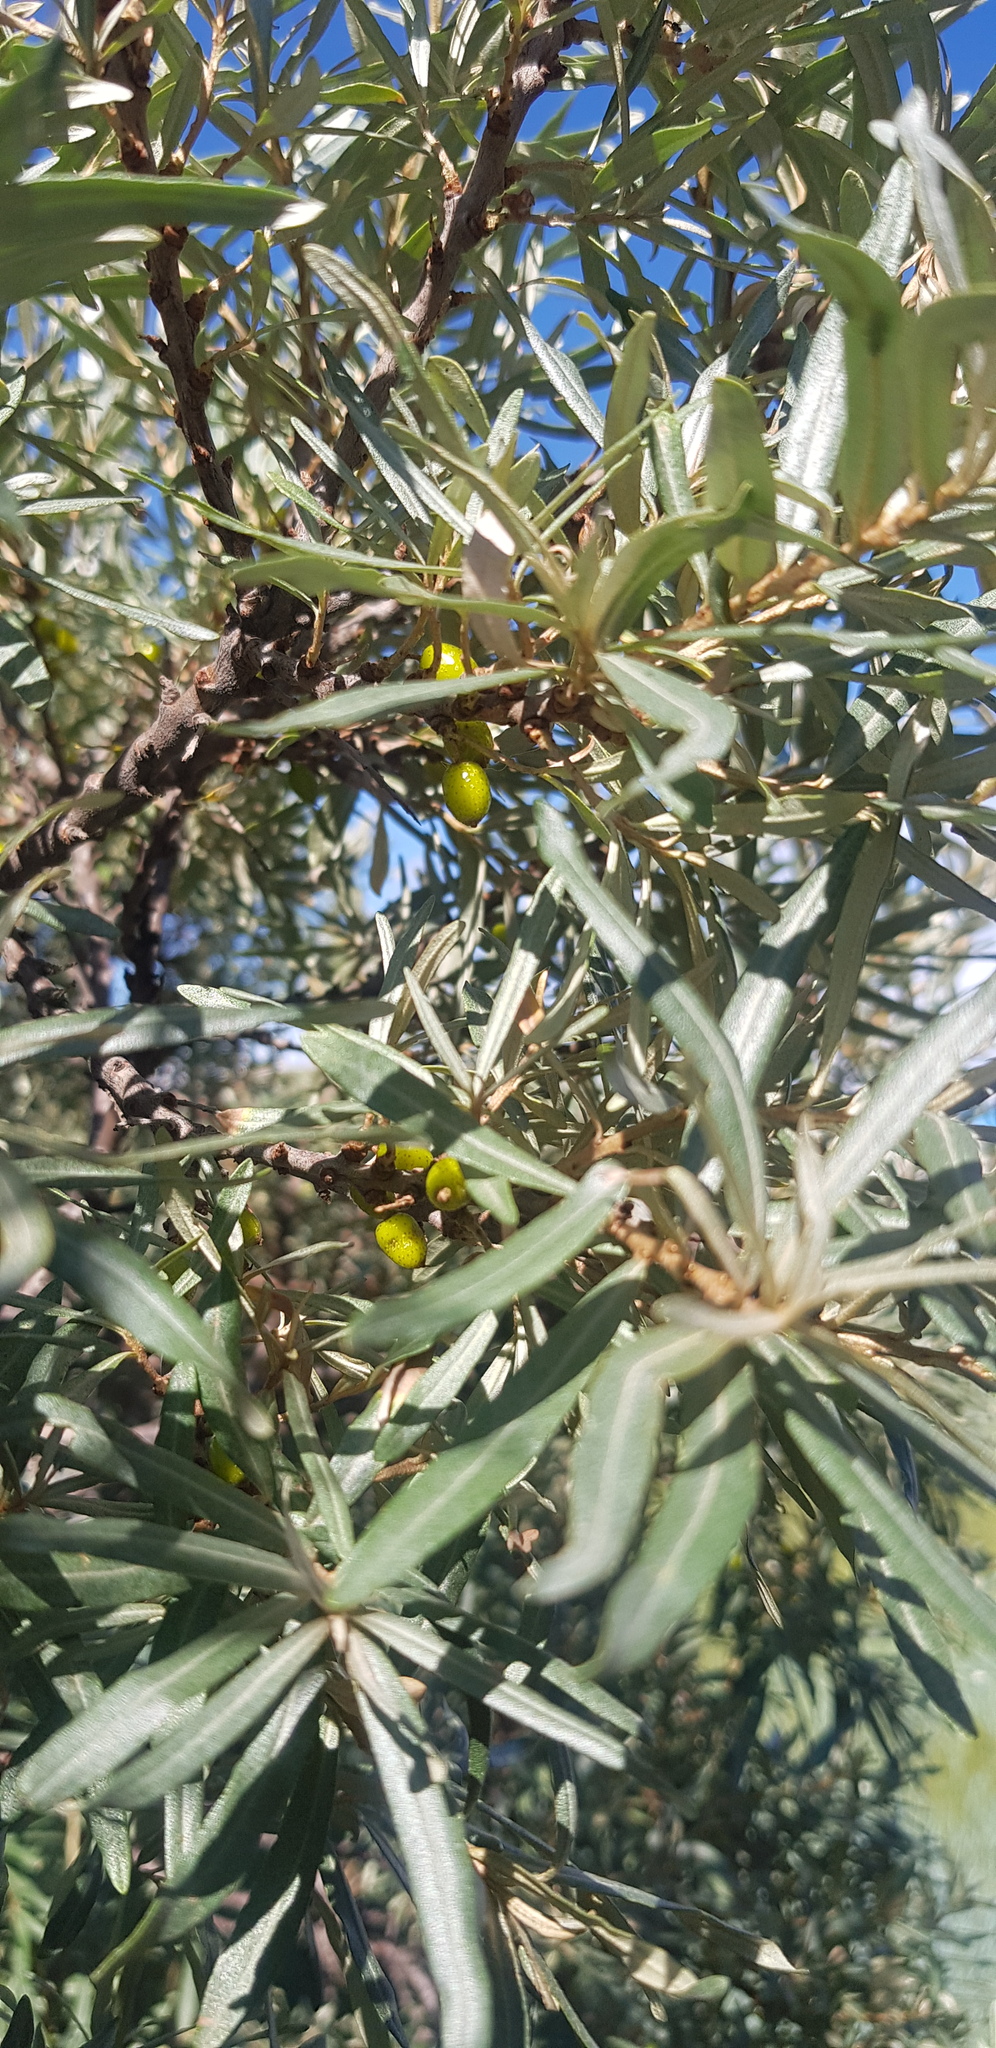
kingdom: Plantae
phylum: Tracheophyta
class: Magnoliopsida
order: Rosales
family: Elaeagnaceae
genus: Hippophae
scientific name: Hippophae rhamnoides
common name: Sea-buckthorn
